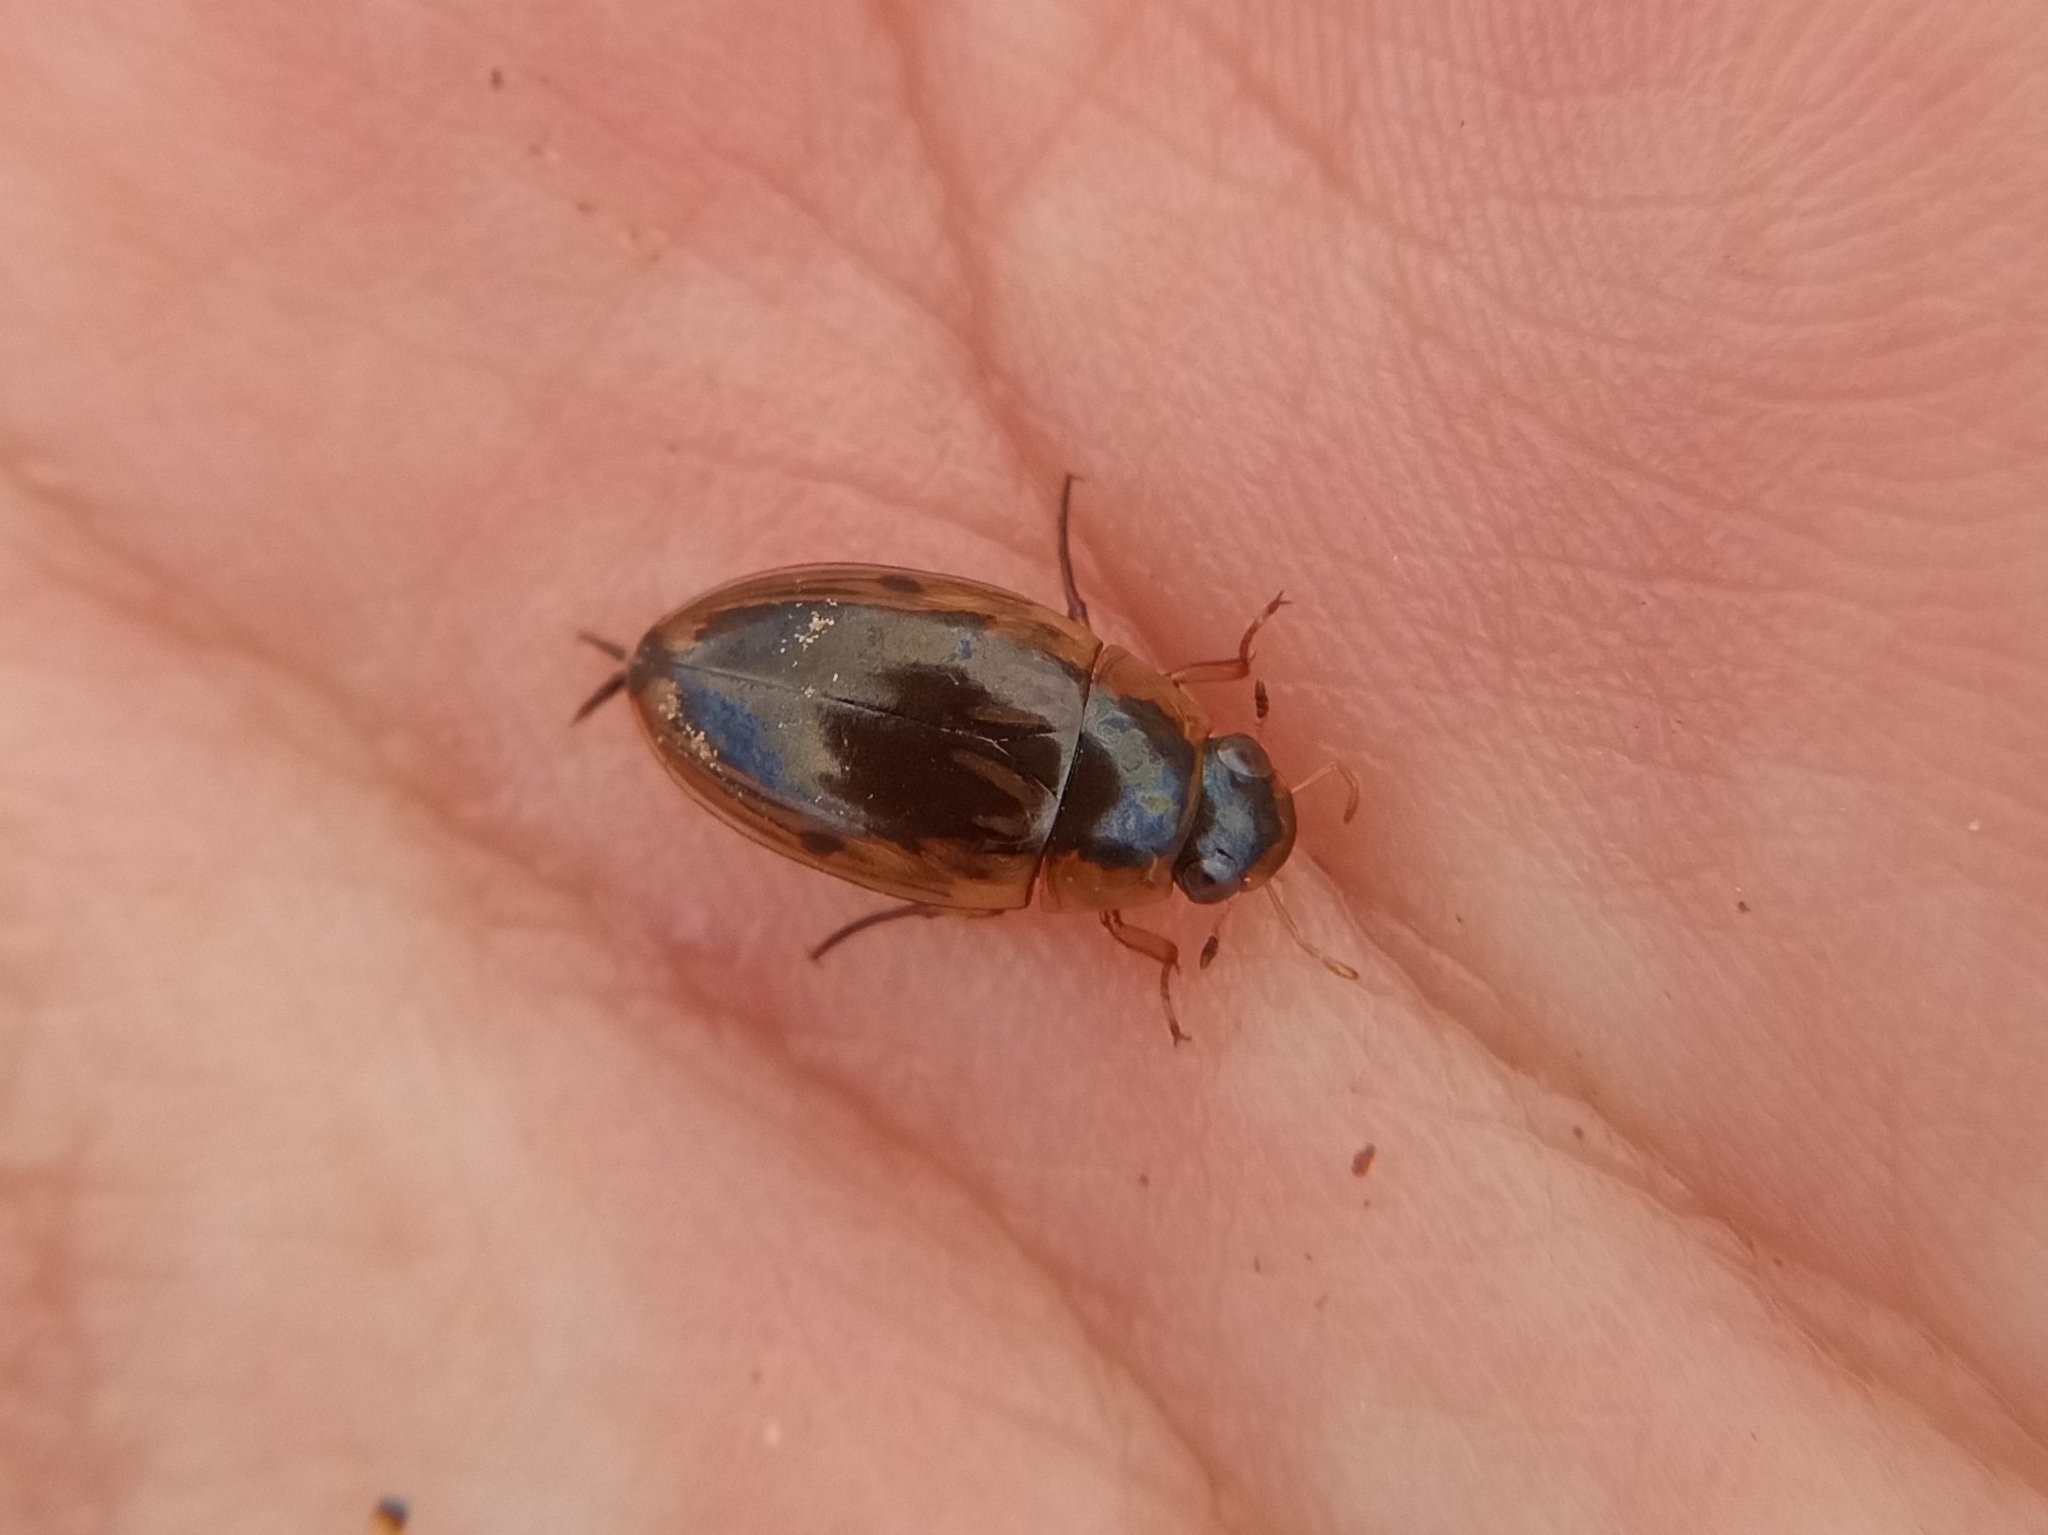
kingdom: Animalia
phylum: Arthropoda
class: Insecta
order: Coleoptera
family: Hydrophilidae
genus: Tropisternus
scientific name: Tropisternus lateralis
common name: Lateral-banded water scavenger beetle
